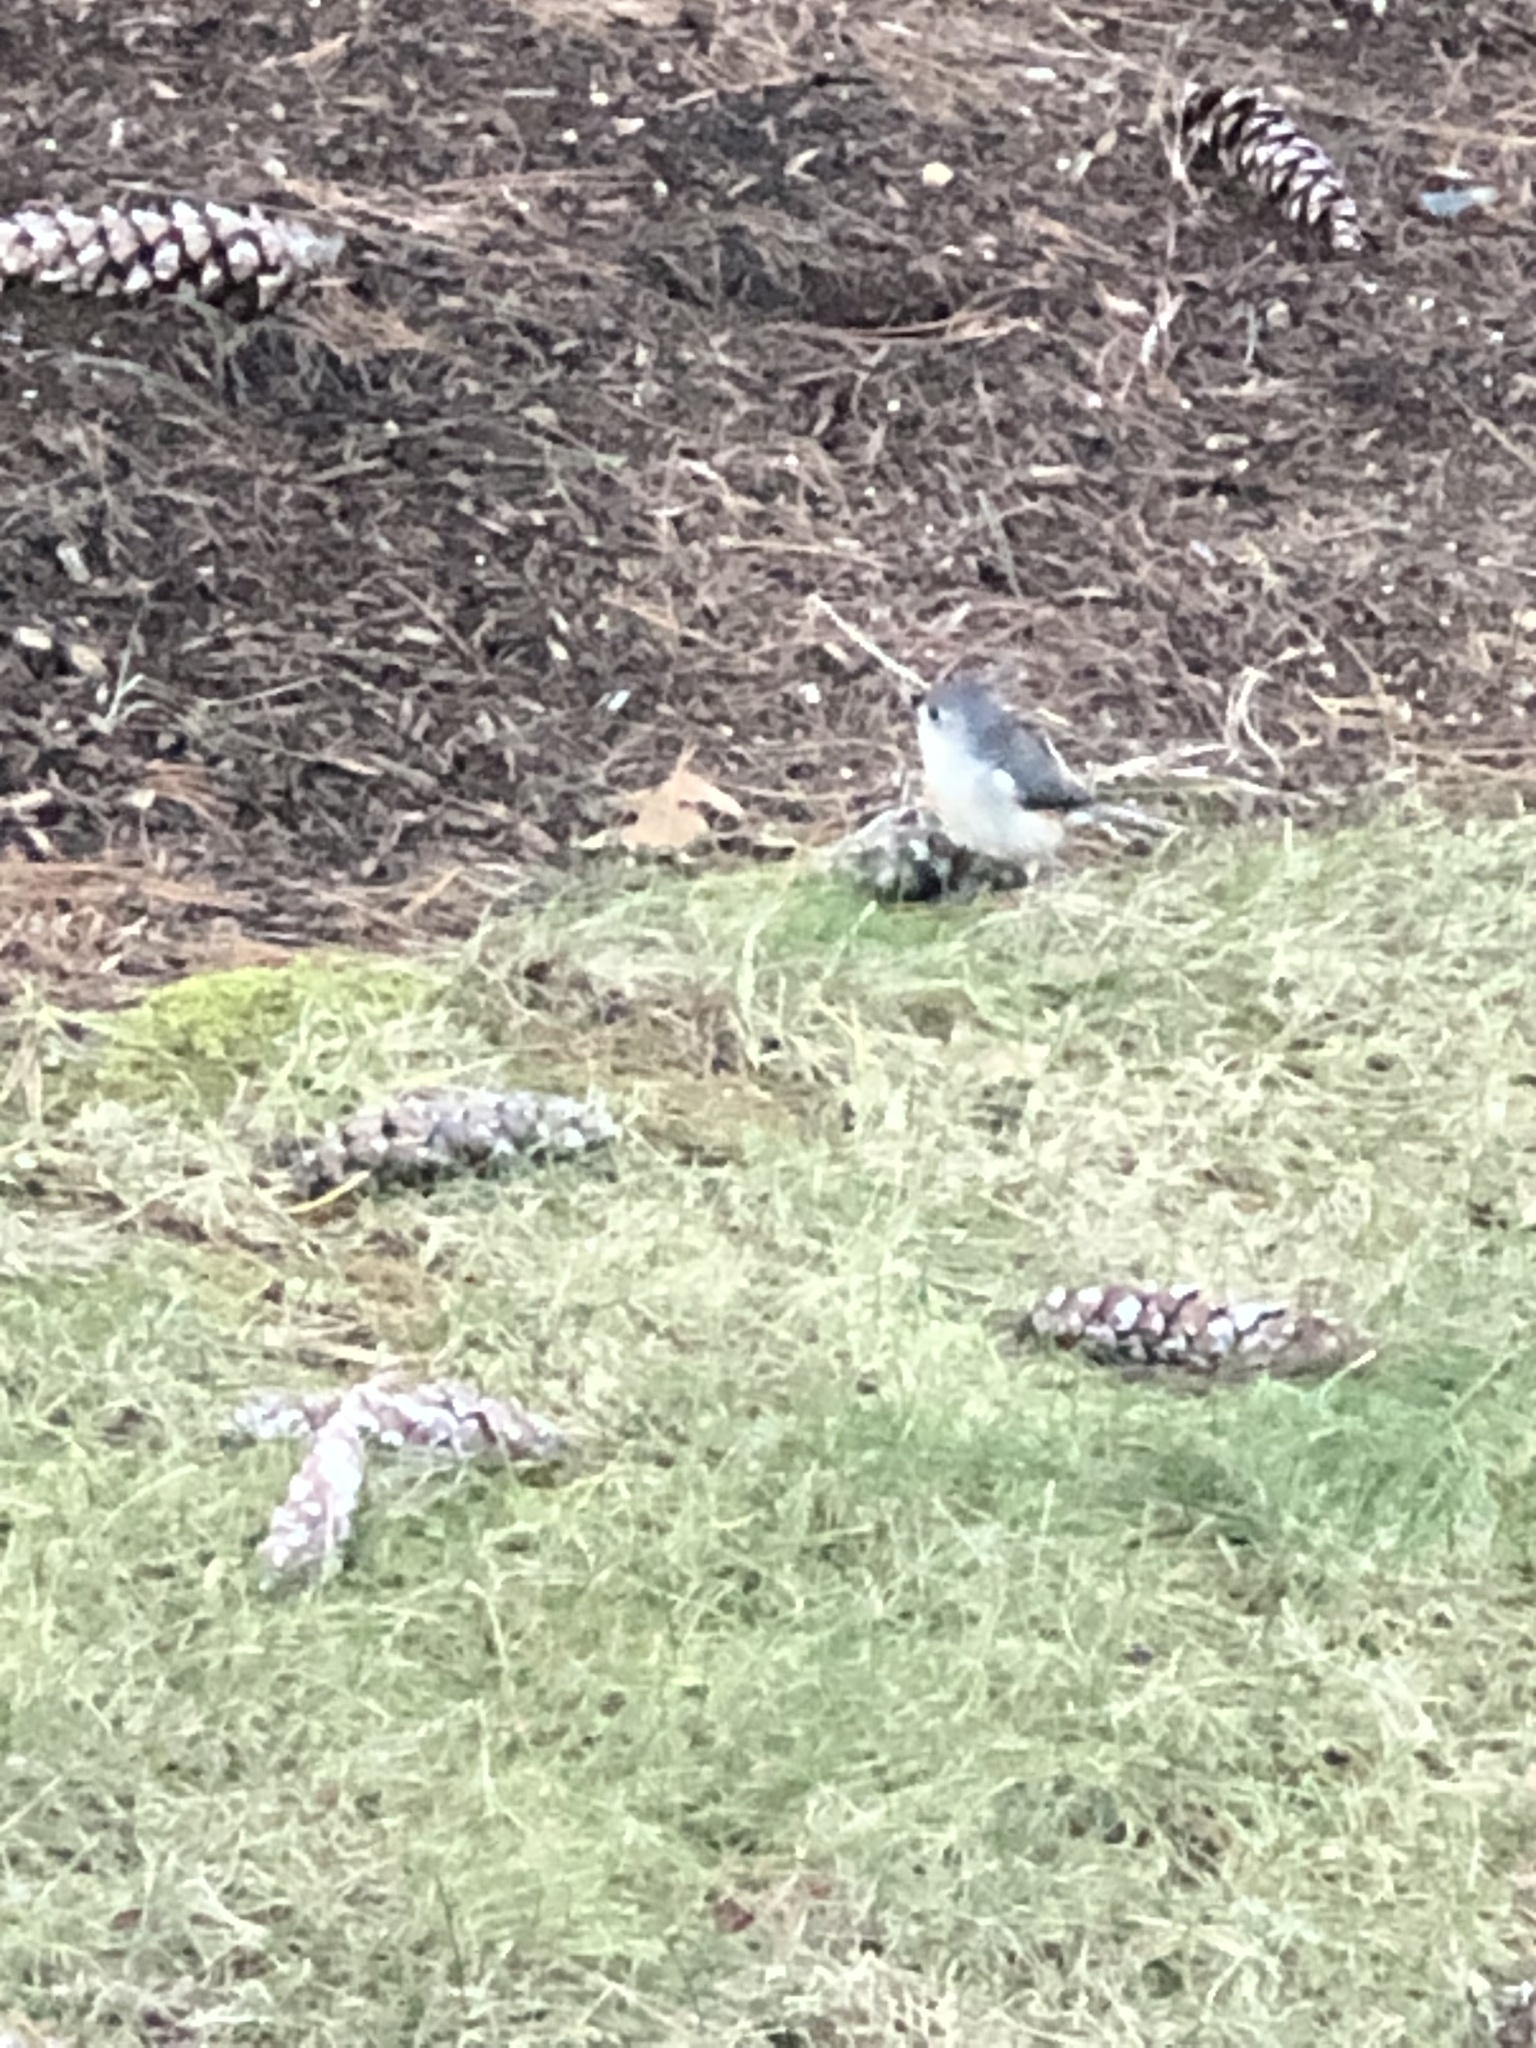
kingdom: Animalia
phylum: Chordata
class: Aves
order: Passeriformes
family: Paridae
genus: Baeolophus
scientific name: Baeolophus bicolor
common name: Tufted titmouse
